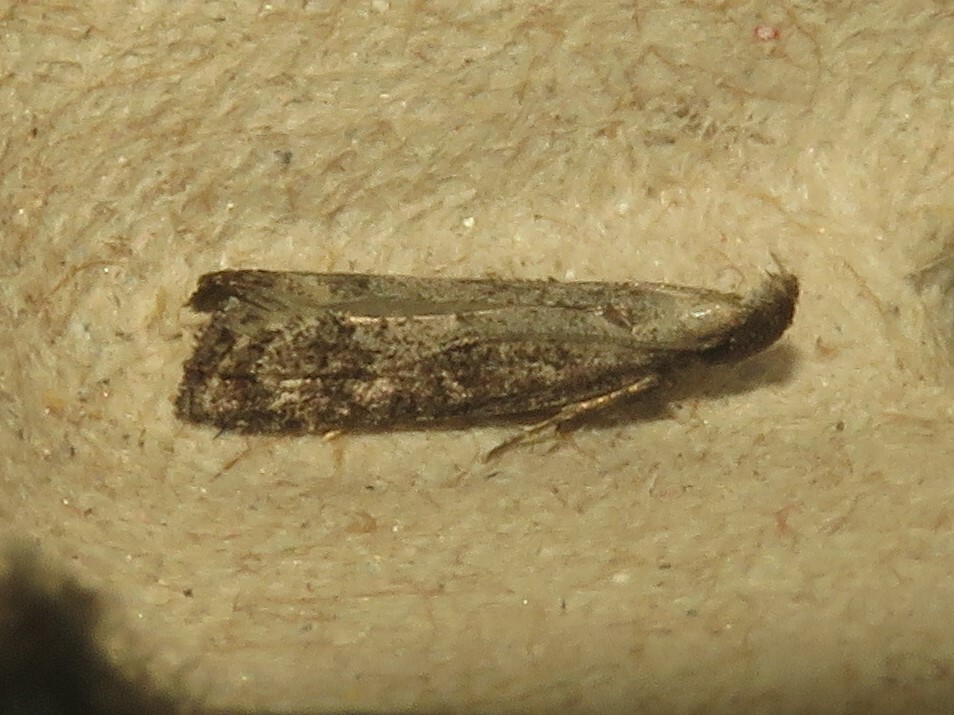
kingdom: Animalia
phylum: Arthropoda
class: Insecta
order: Lepidoptera
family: Gelechiidae
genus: Dichomeris
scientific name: Dichomeris inversella
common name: Inverse dichomeris moth
